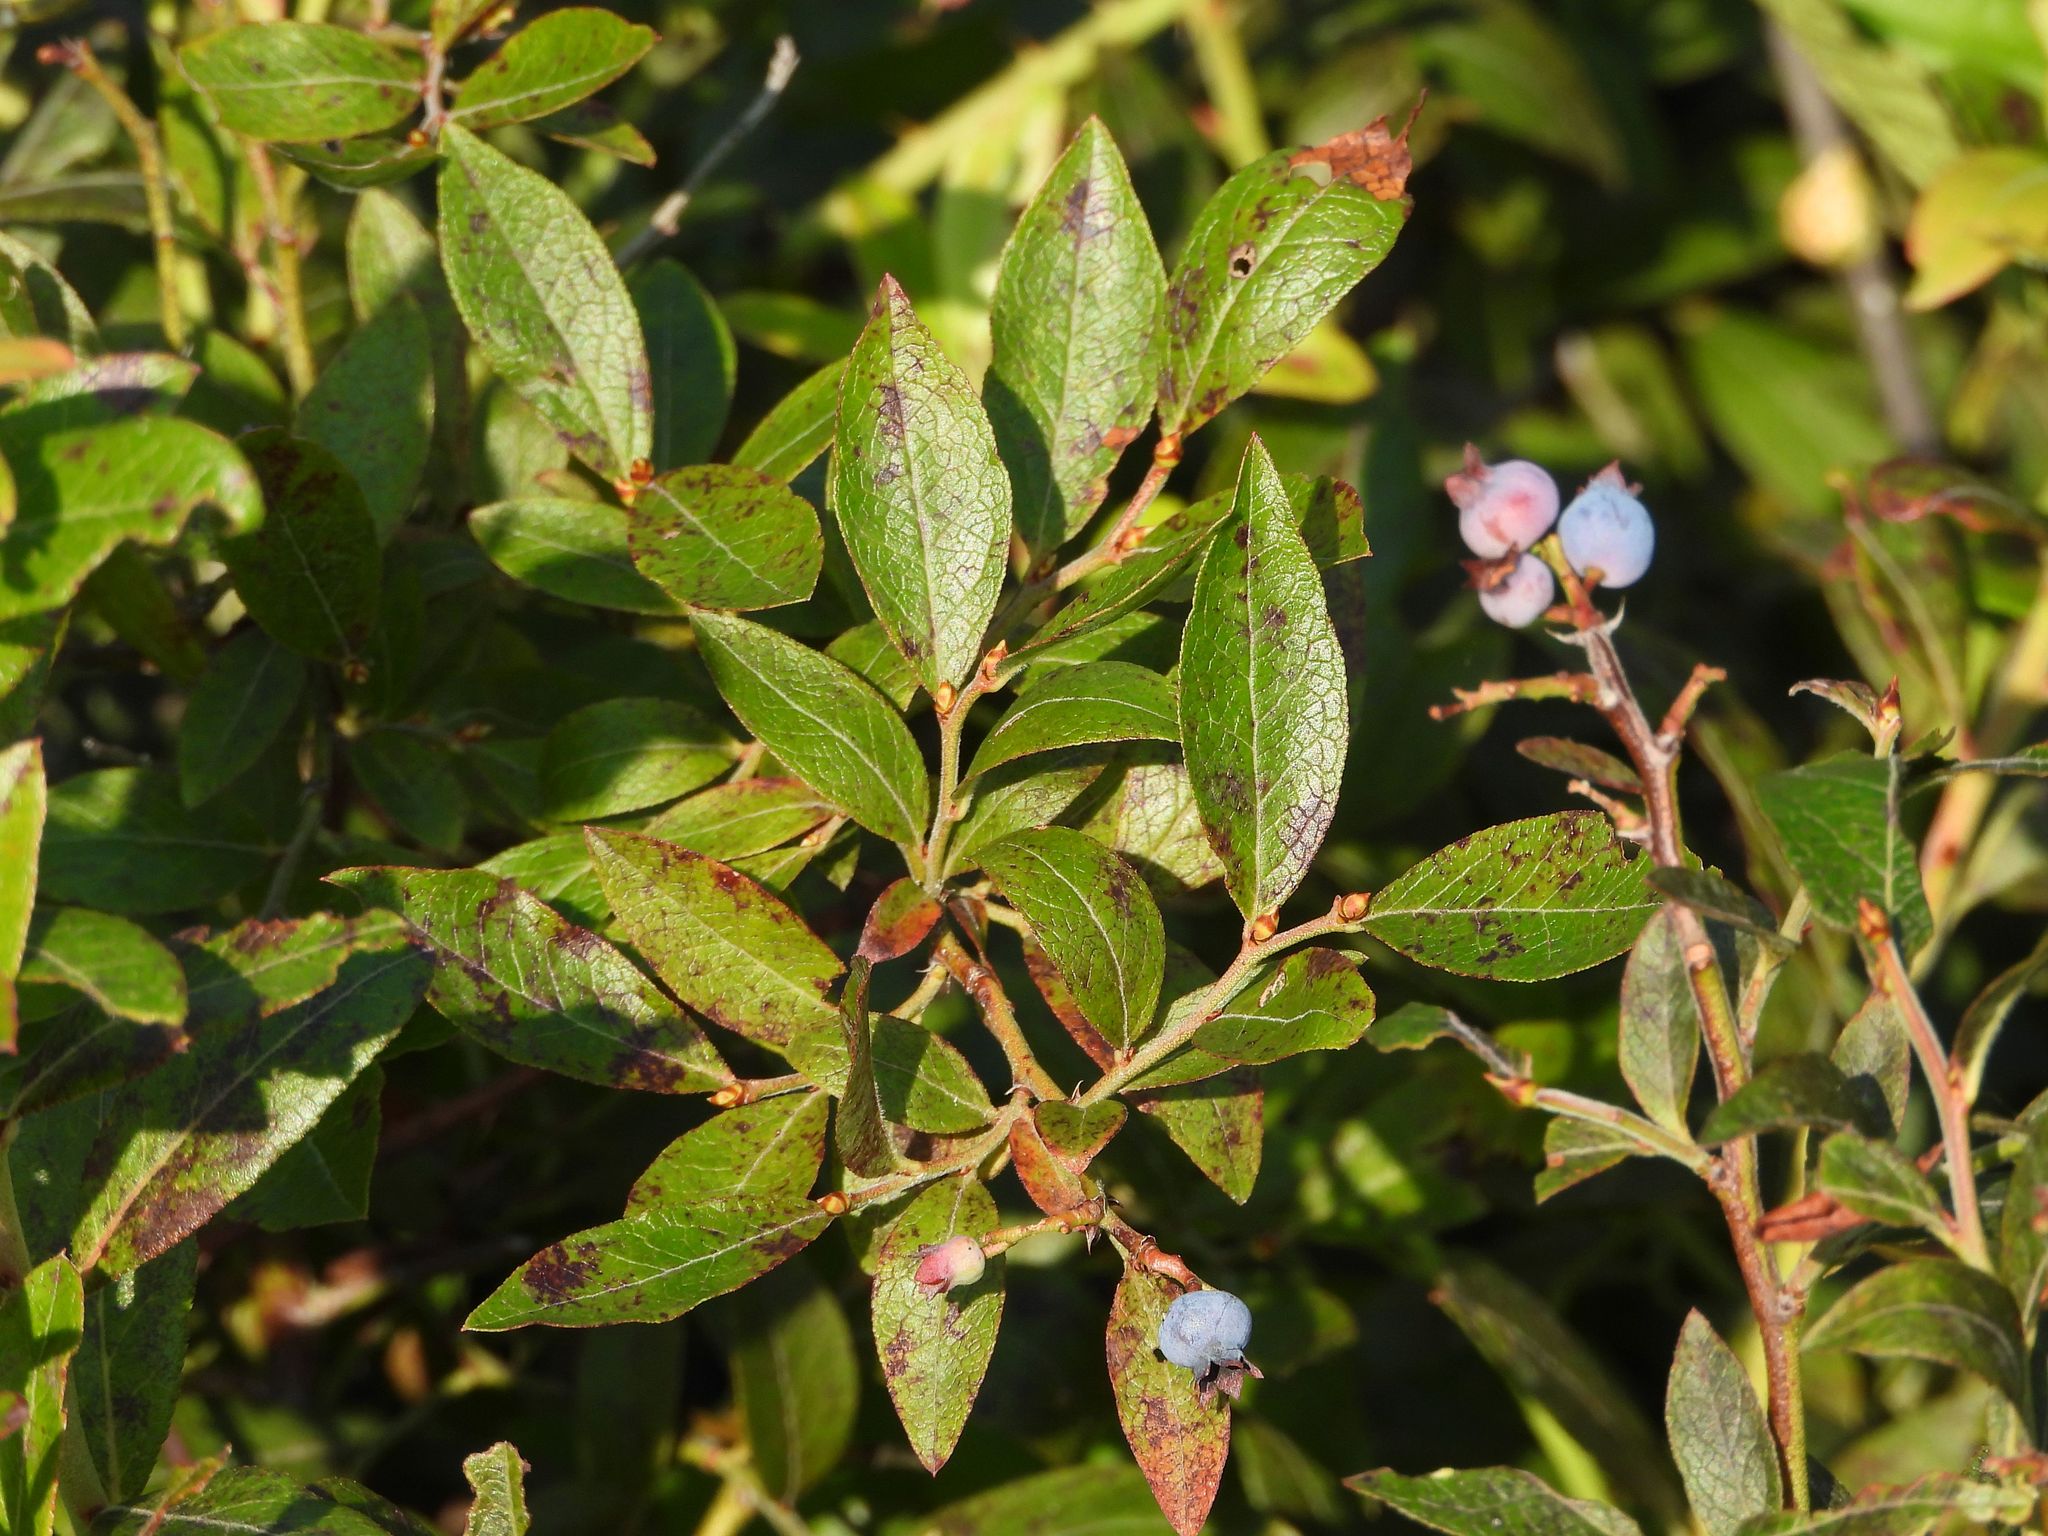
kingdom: Plantae
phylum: Tracheophyta
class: Magnoliopsida
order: Ericales
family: Ericaceae
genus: Vaccinium
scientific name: Vaccinium angustifolium
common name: Early lowbush blueberry
